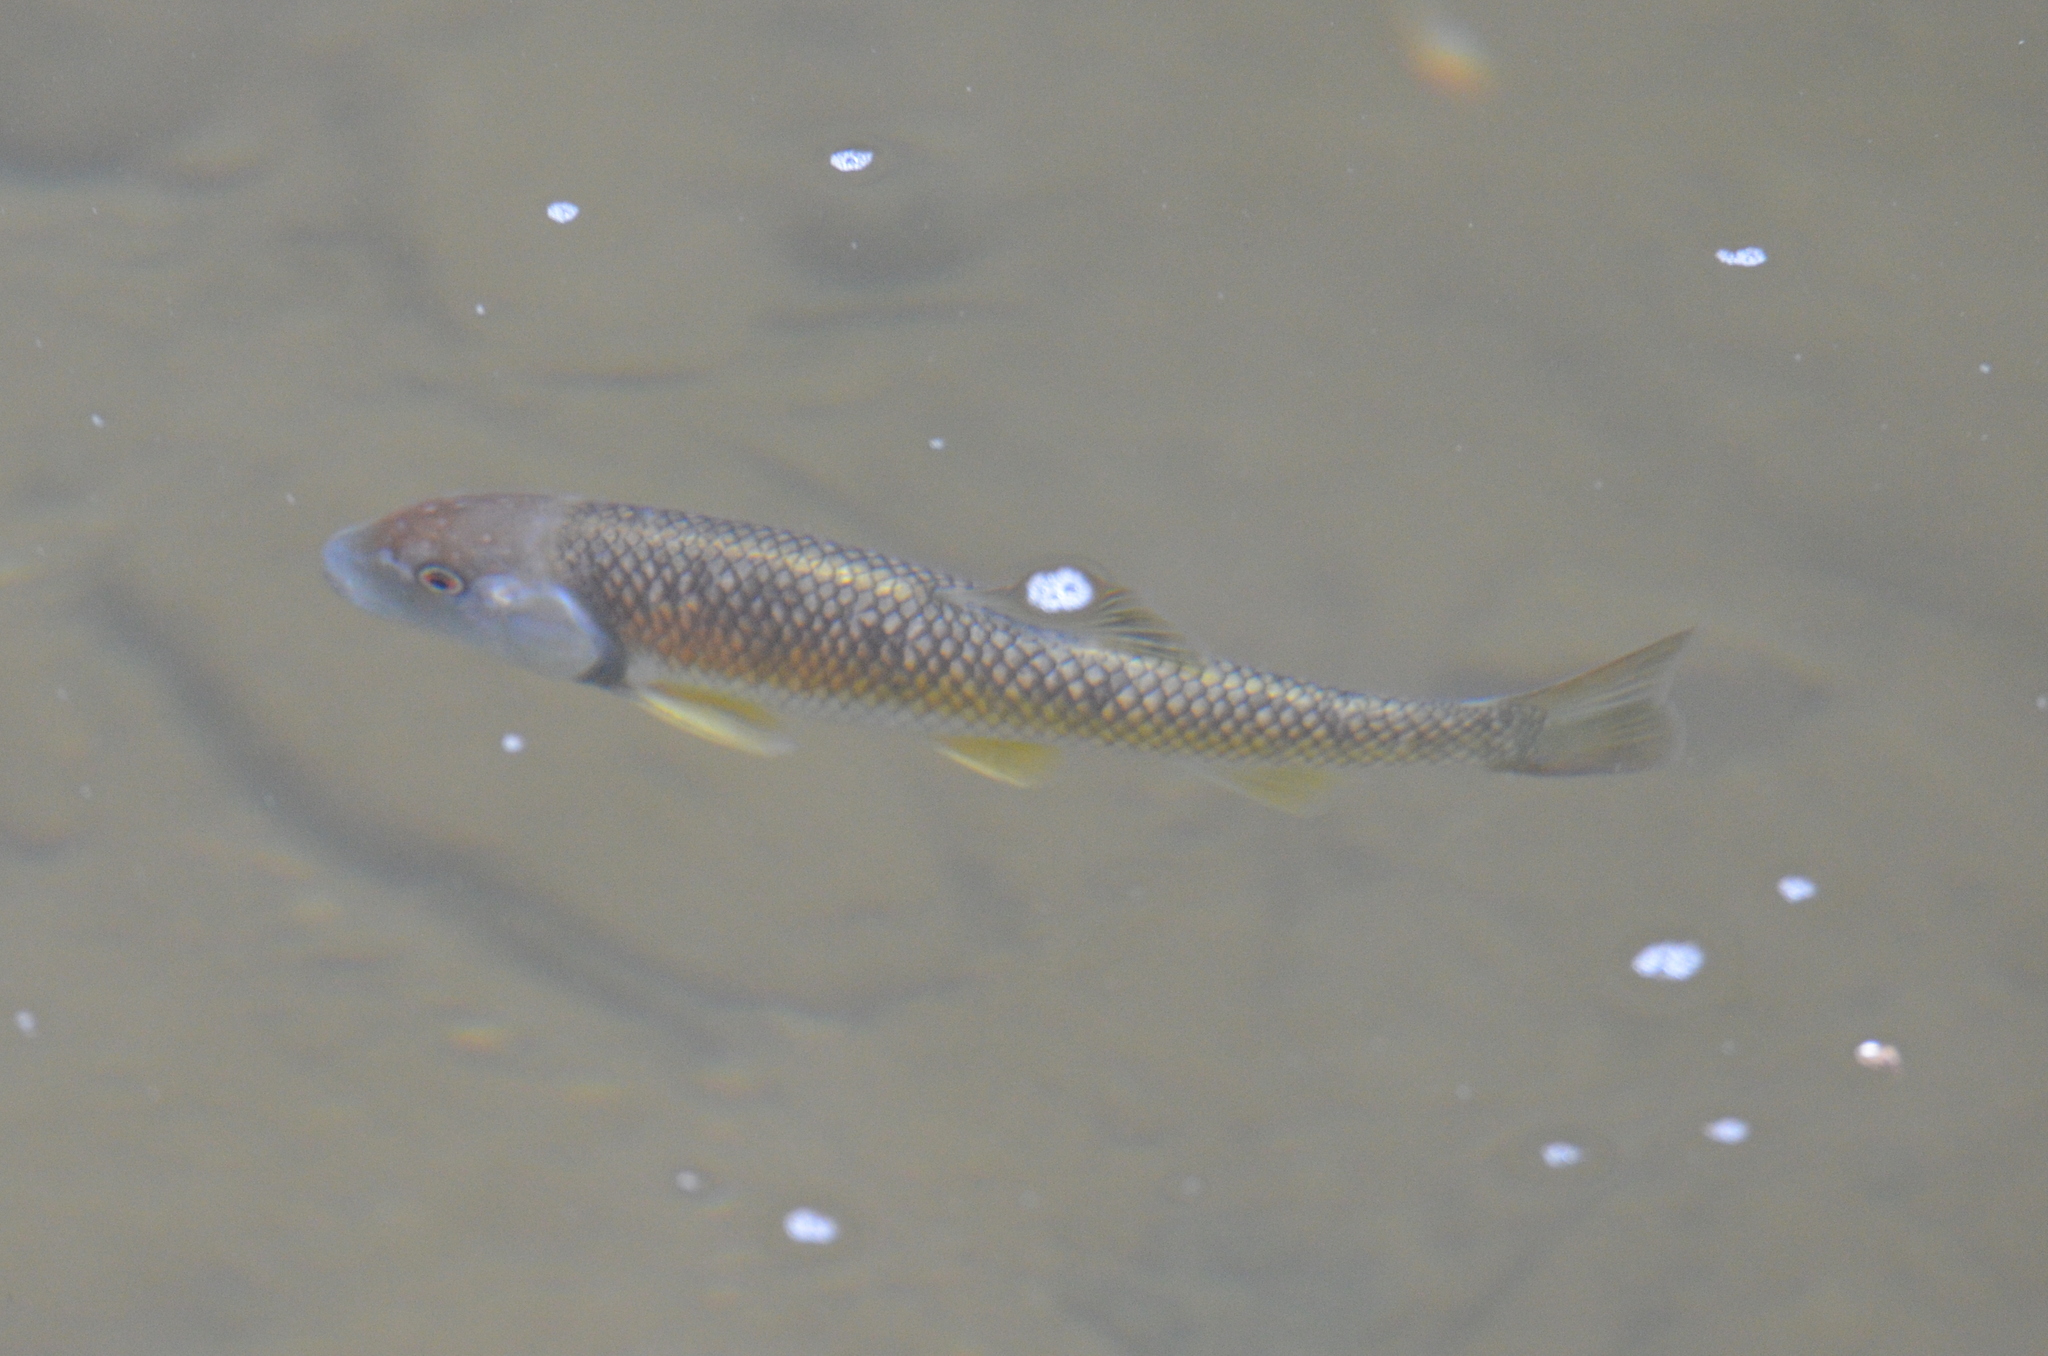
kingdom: Animalia
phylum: Chordata
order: Cypriniformes
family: Cyprinidae
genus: Nocomis
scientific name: Nocomis leptocephalus
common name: Bluehead chub
